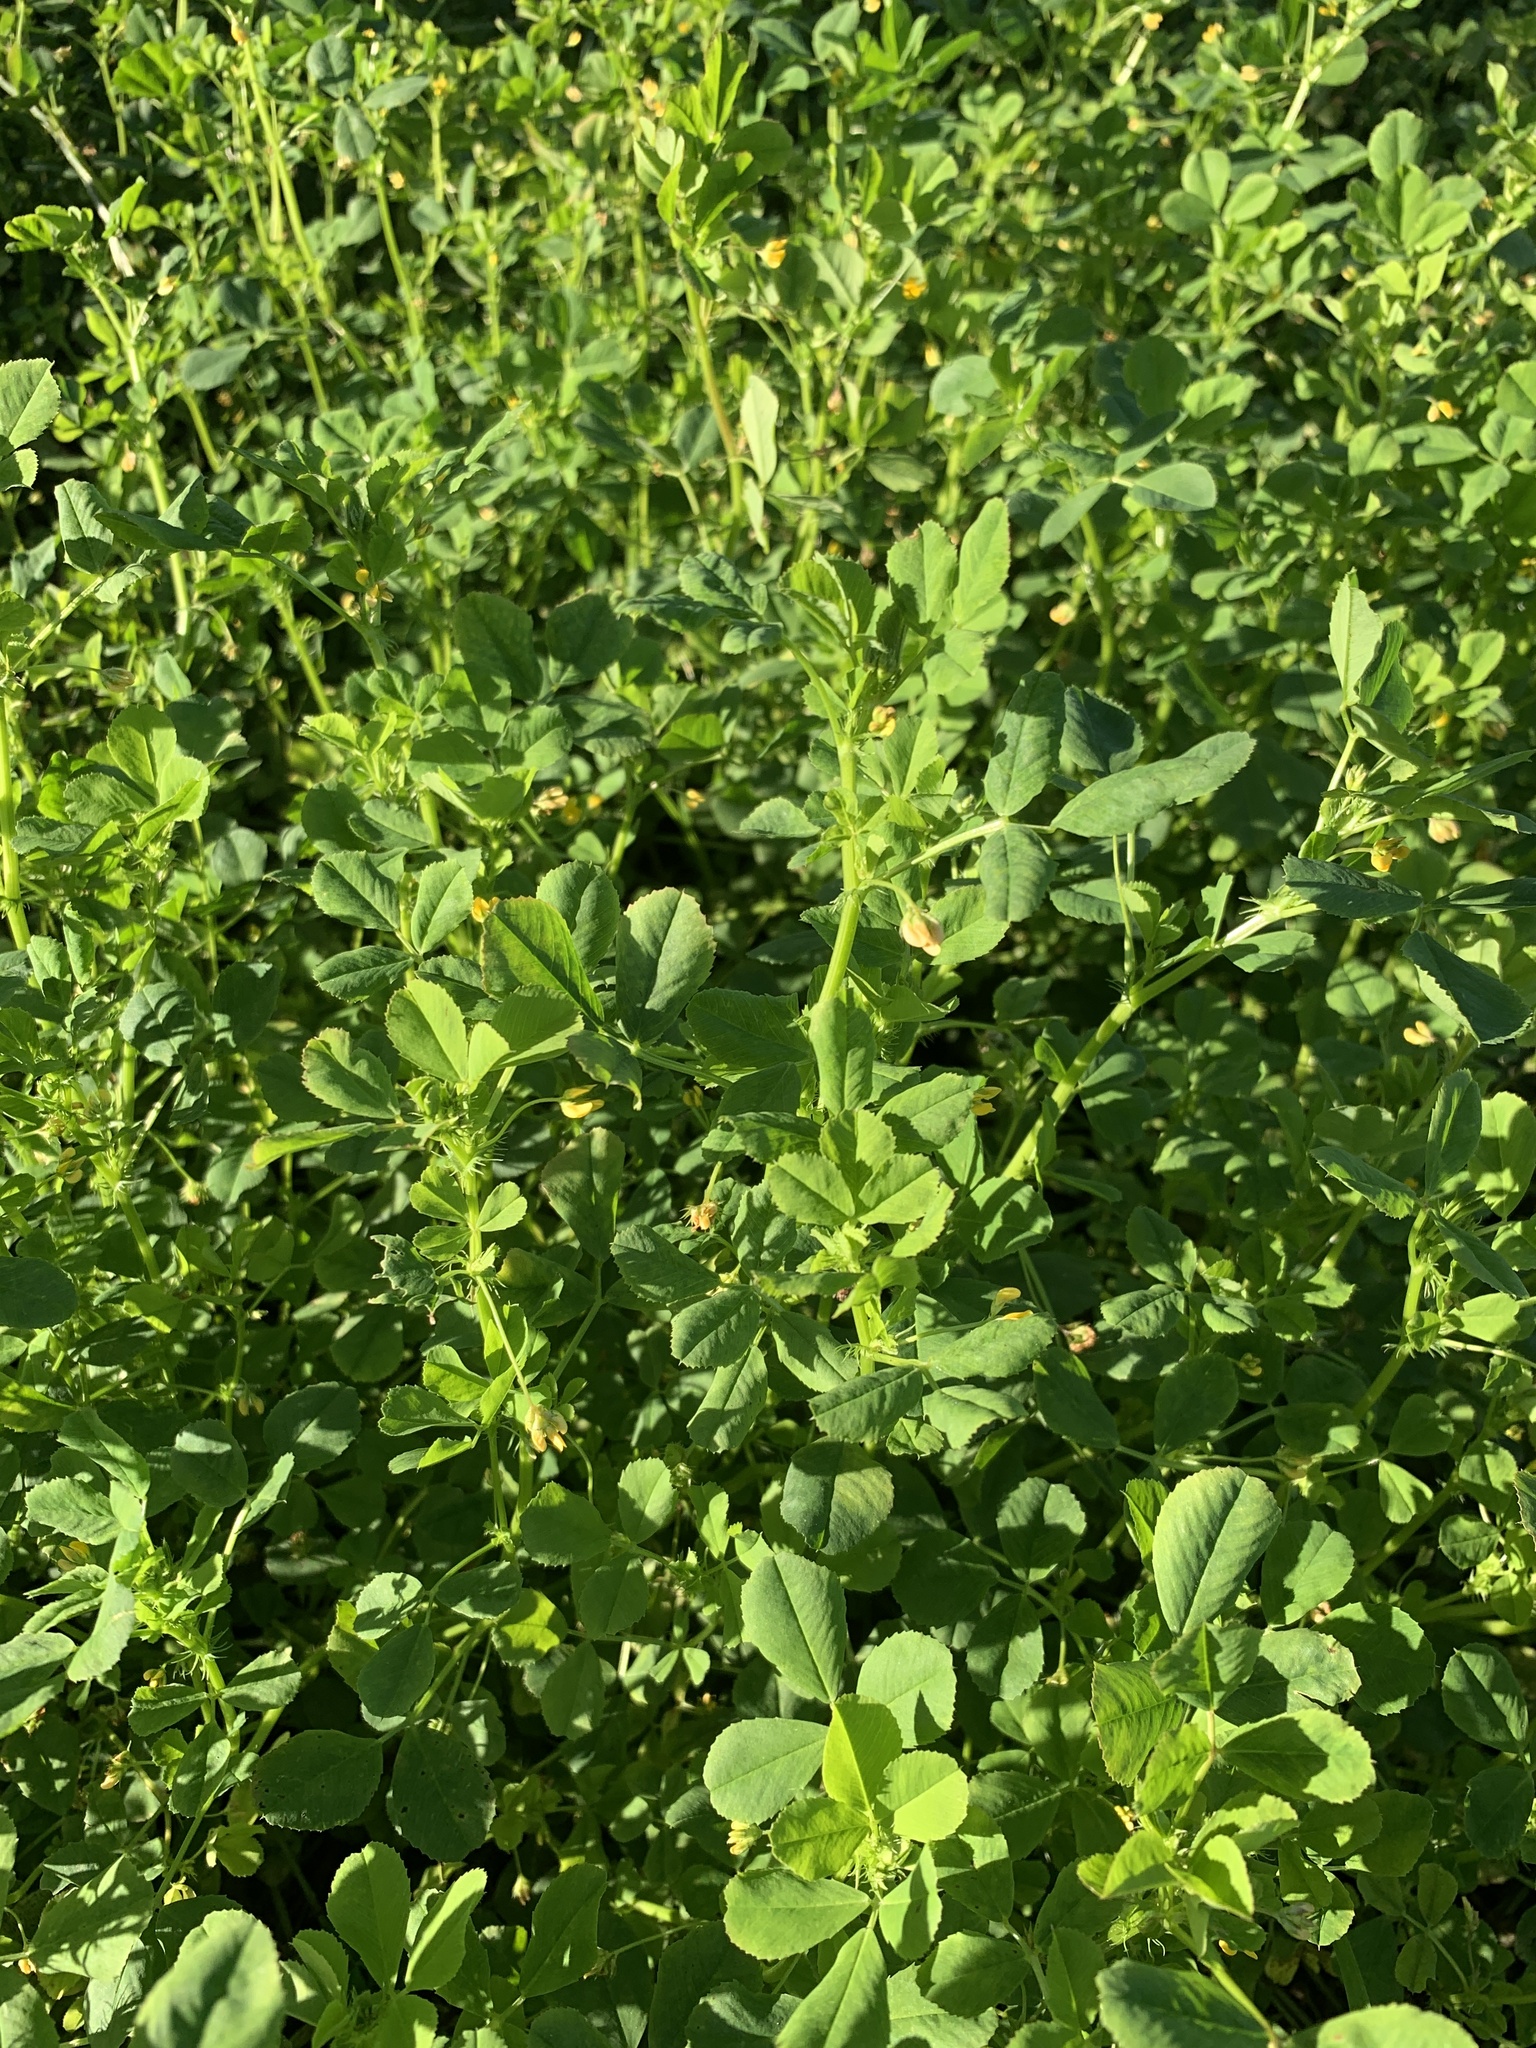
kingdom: Plantae
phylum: Tracheophyta
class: Magnoliopsida
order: Fabales
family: Fabaceae
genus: Medicago
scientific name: Medicago polymorpha
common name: Burclover
